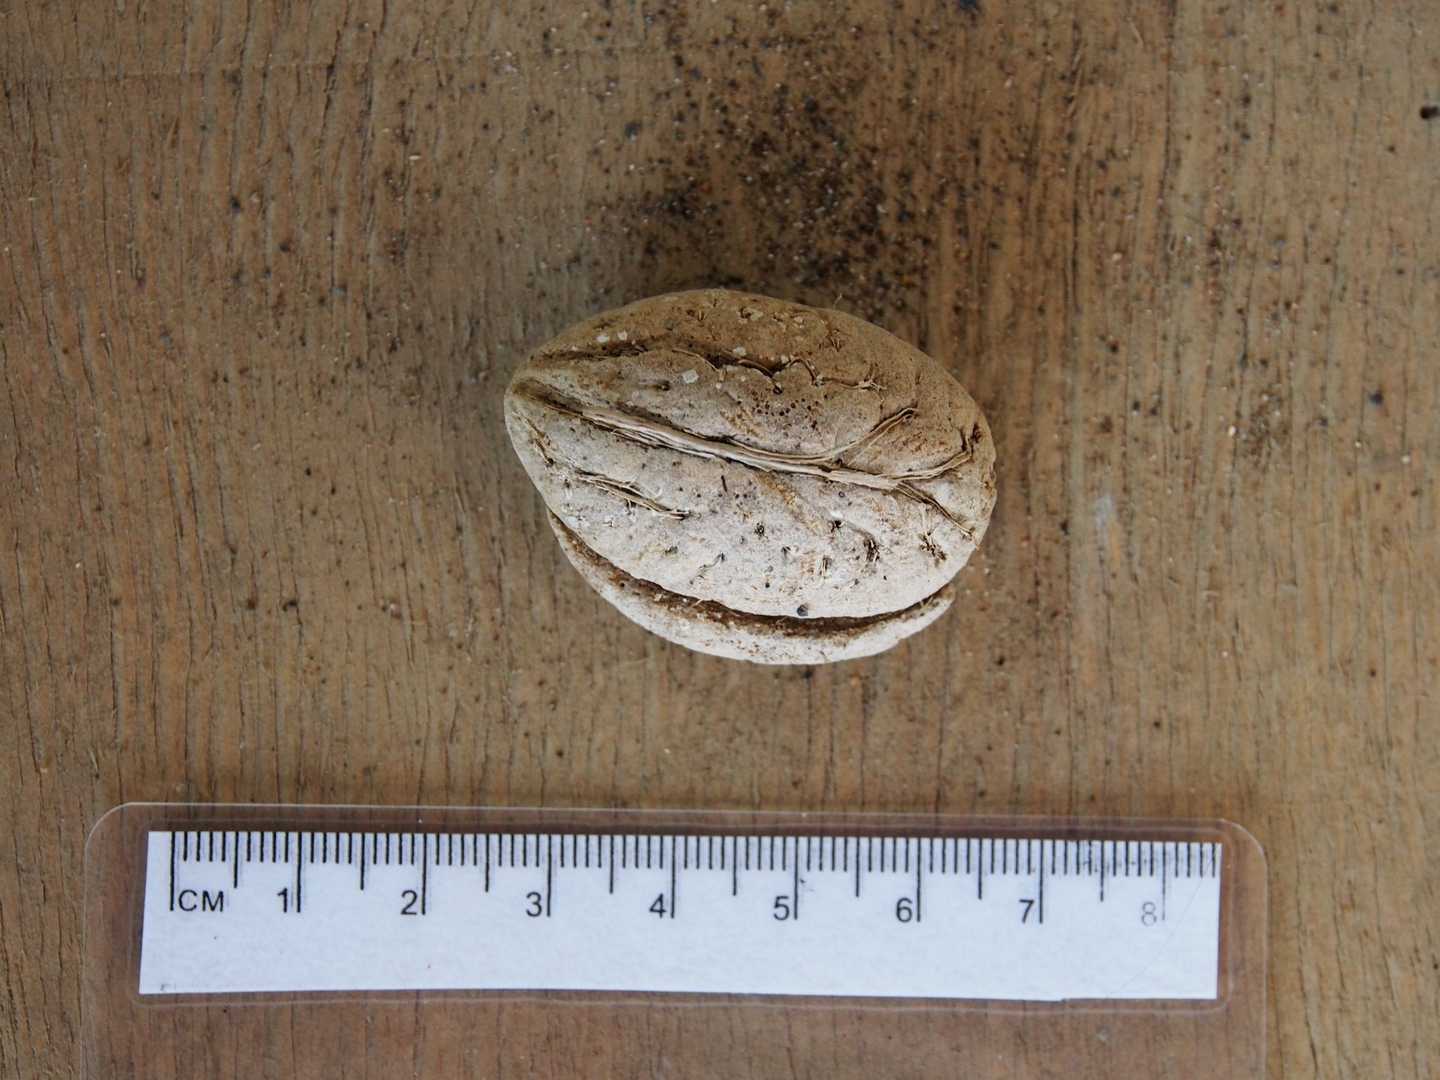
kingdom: Plantae
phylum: Tracheophyta
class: Magnoliopsida
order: Myrtales
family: Combretaceae
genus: Terminalia
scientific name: Terminalia catappa
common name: Tropical almond
